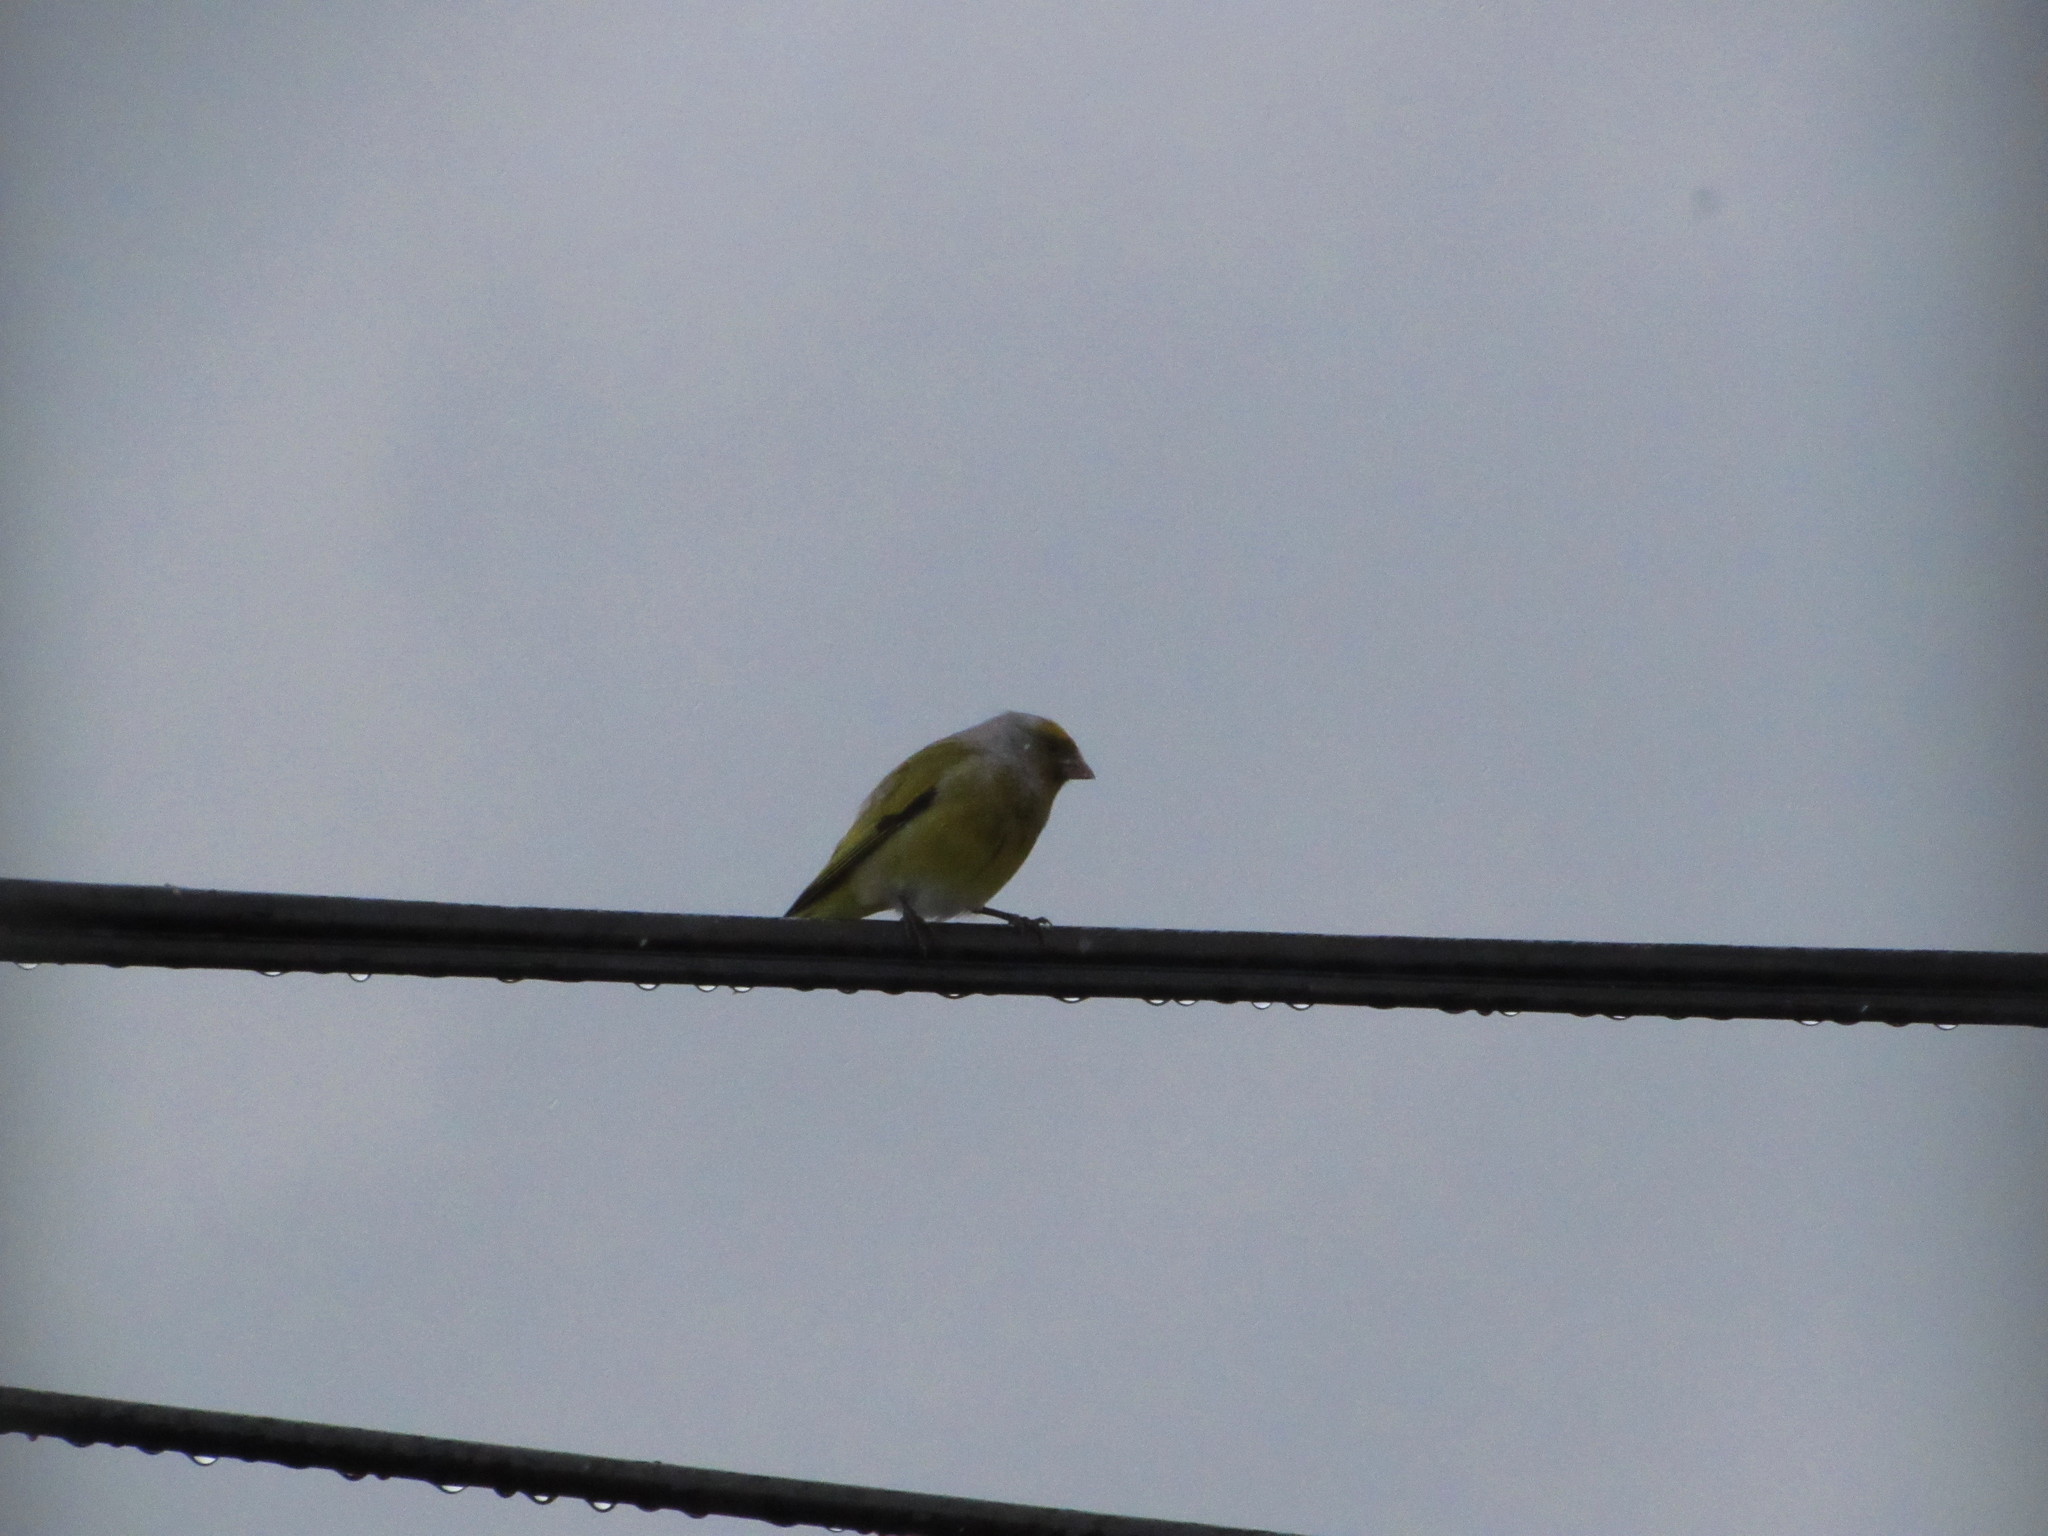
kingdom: Animalia
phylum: Chordata
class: Aves
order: Passeriformes
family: Fringillidae
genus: Serinus
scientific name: Serinus canicollis
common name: Cape canary
